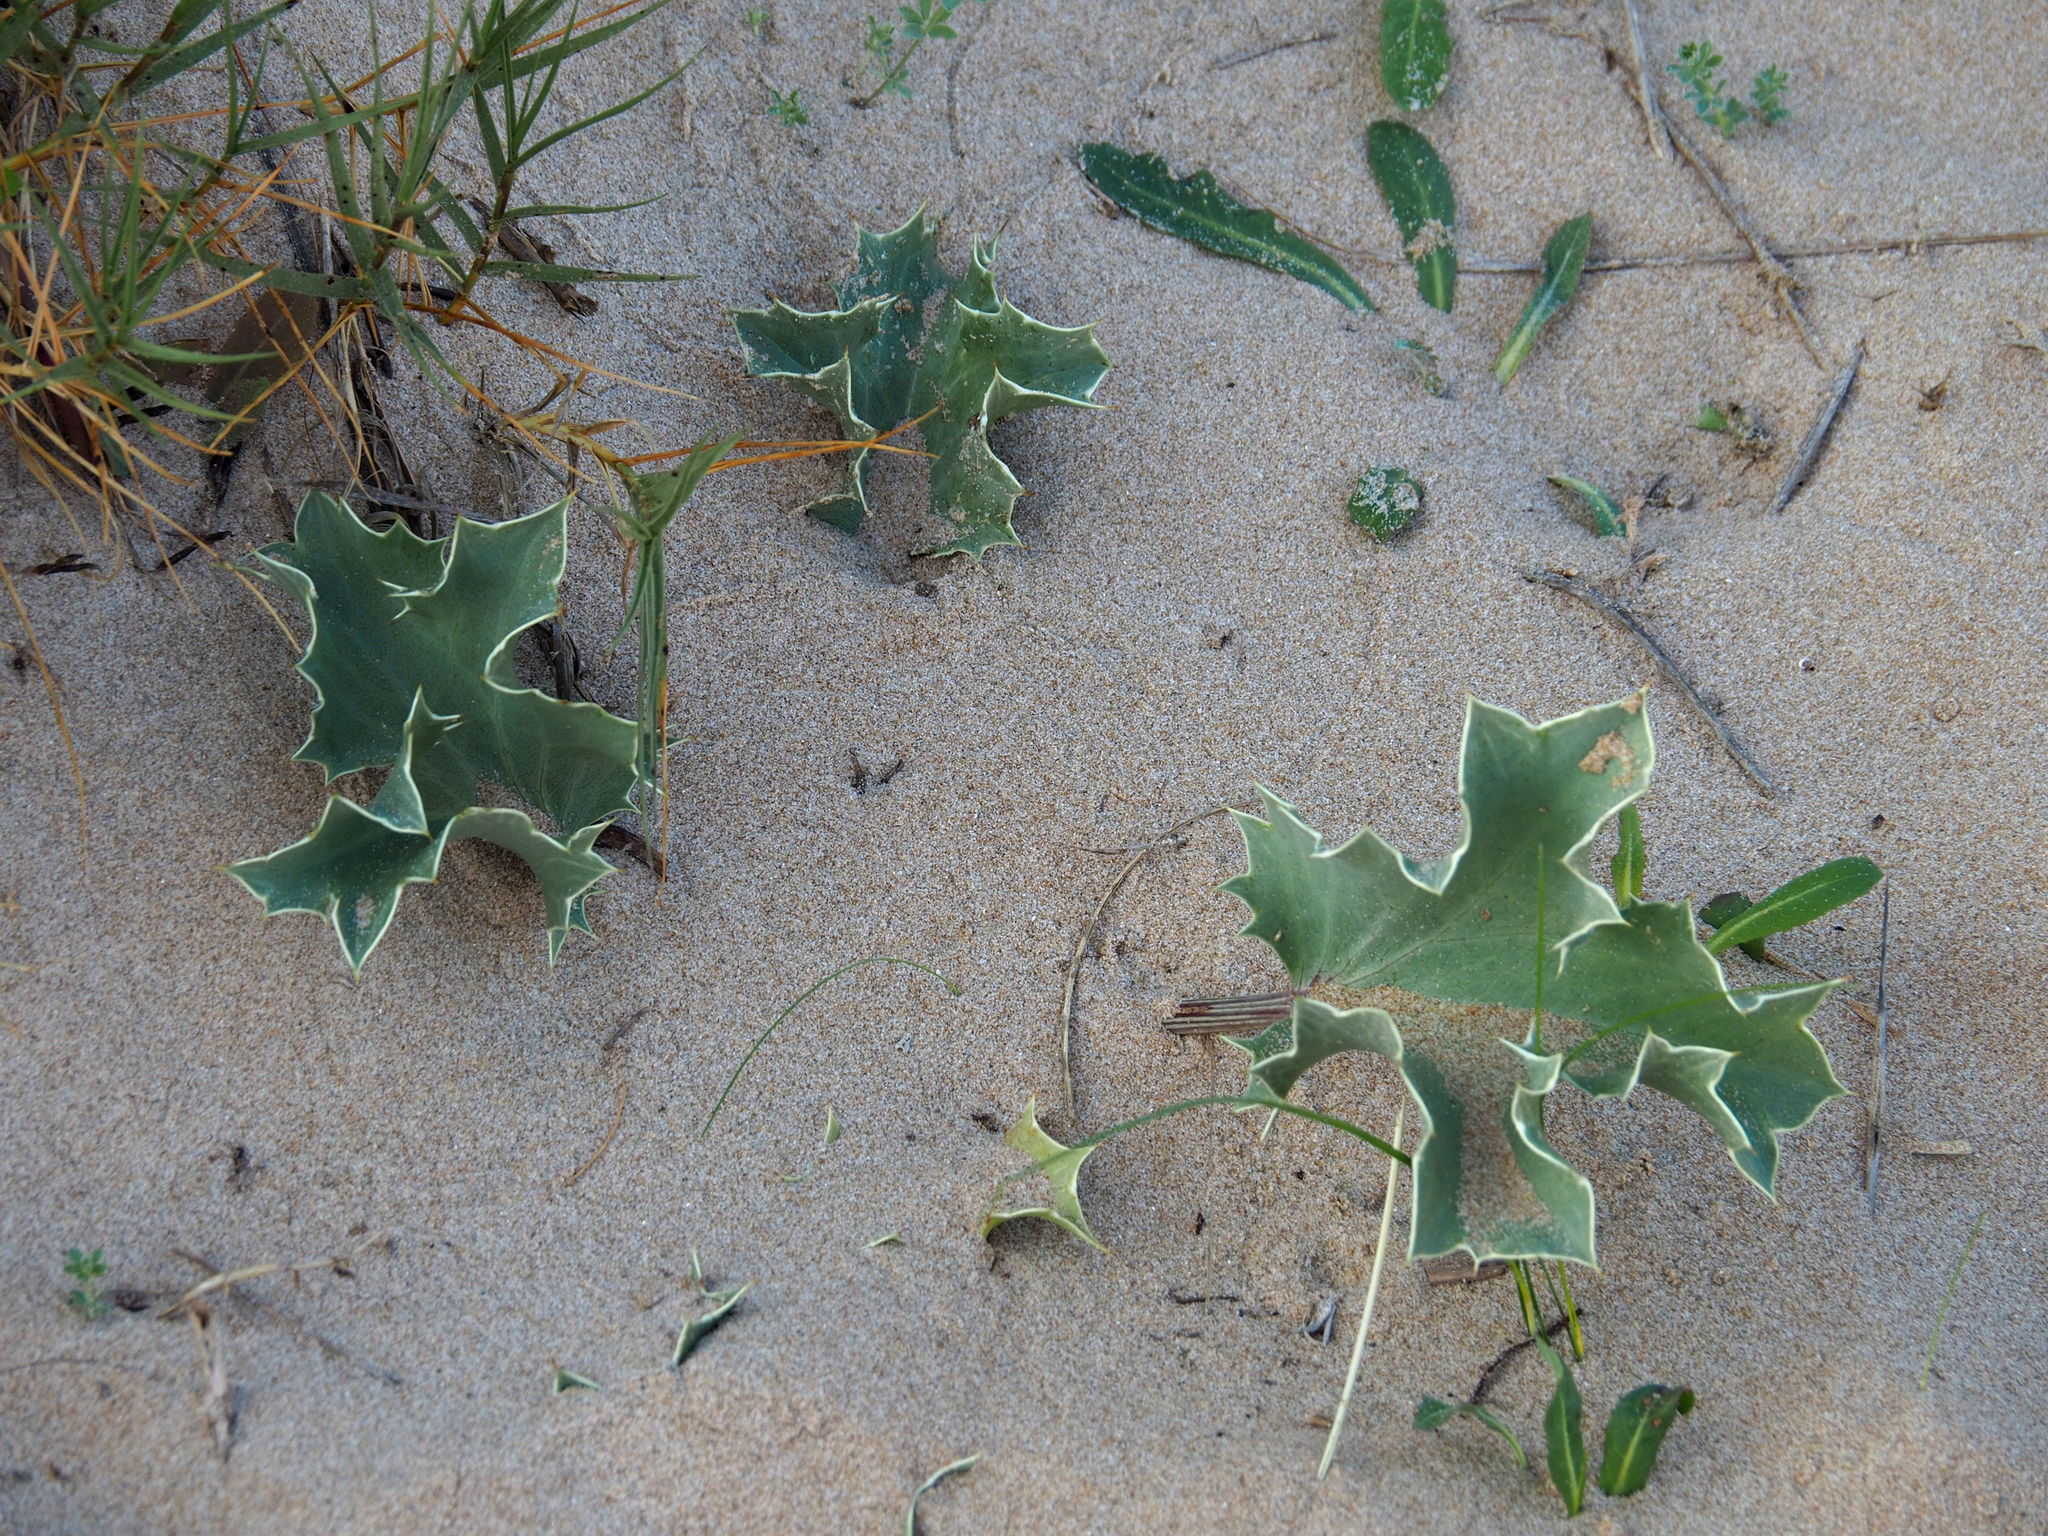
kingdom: Plantae
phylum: Tracheophyta
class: Magnoliopsida
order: Apiales
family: Apiaceae
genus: Eryngium
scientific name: Eryngium maritimum
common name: Sea-holly
